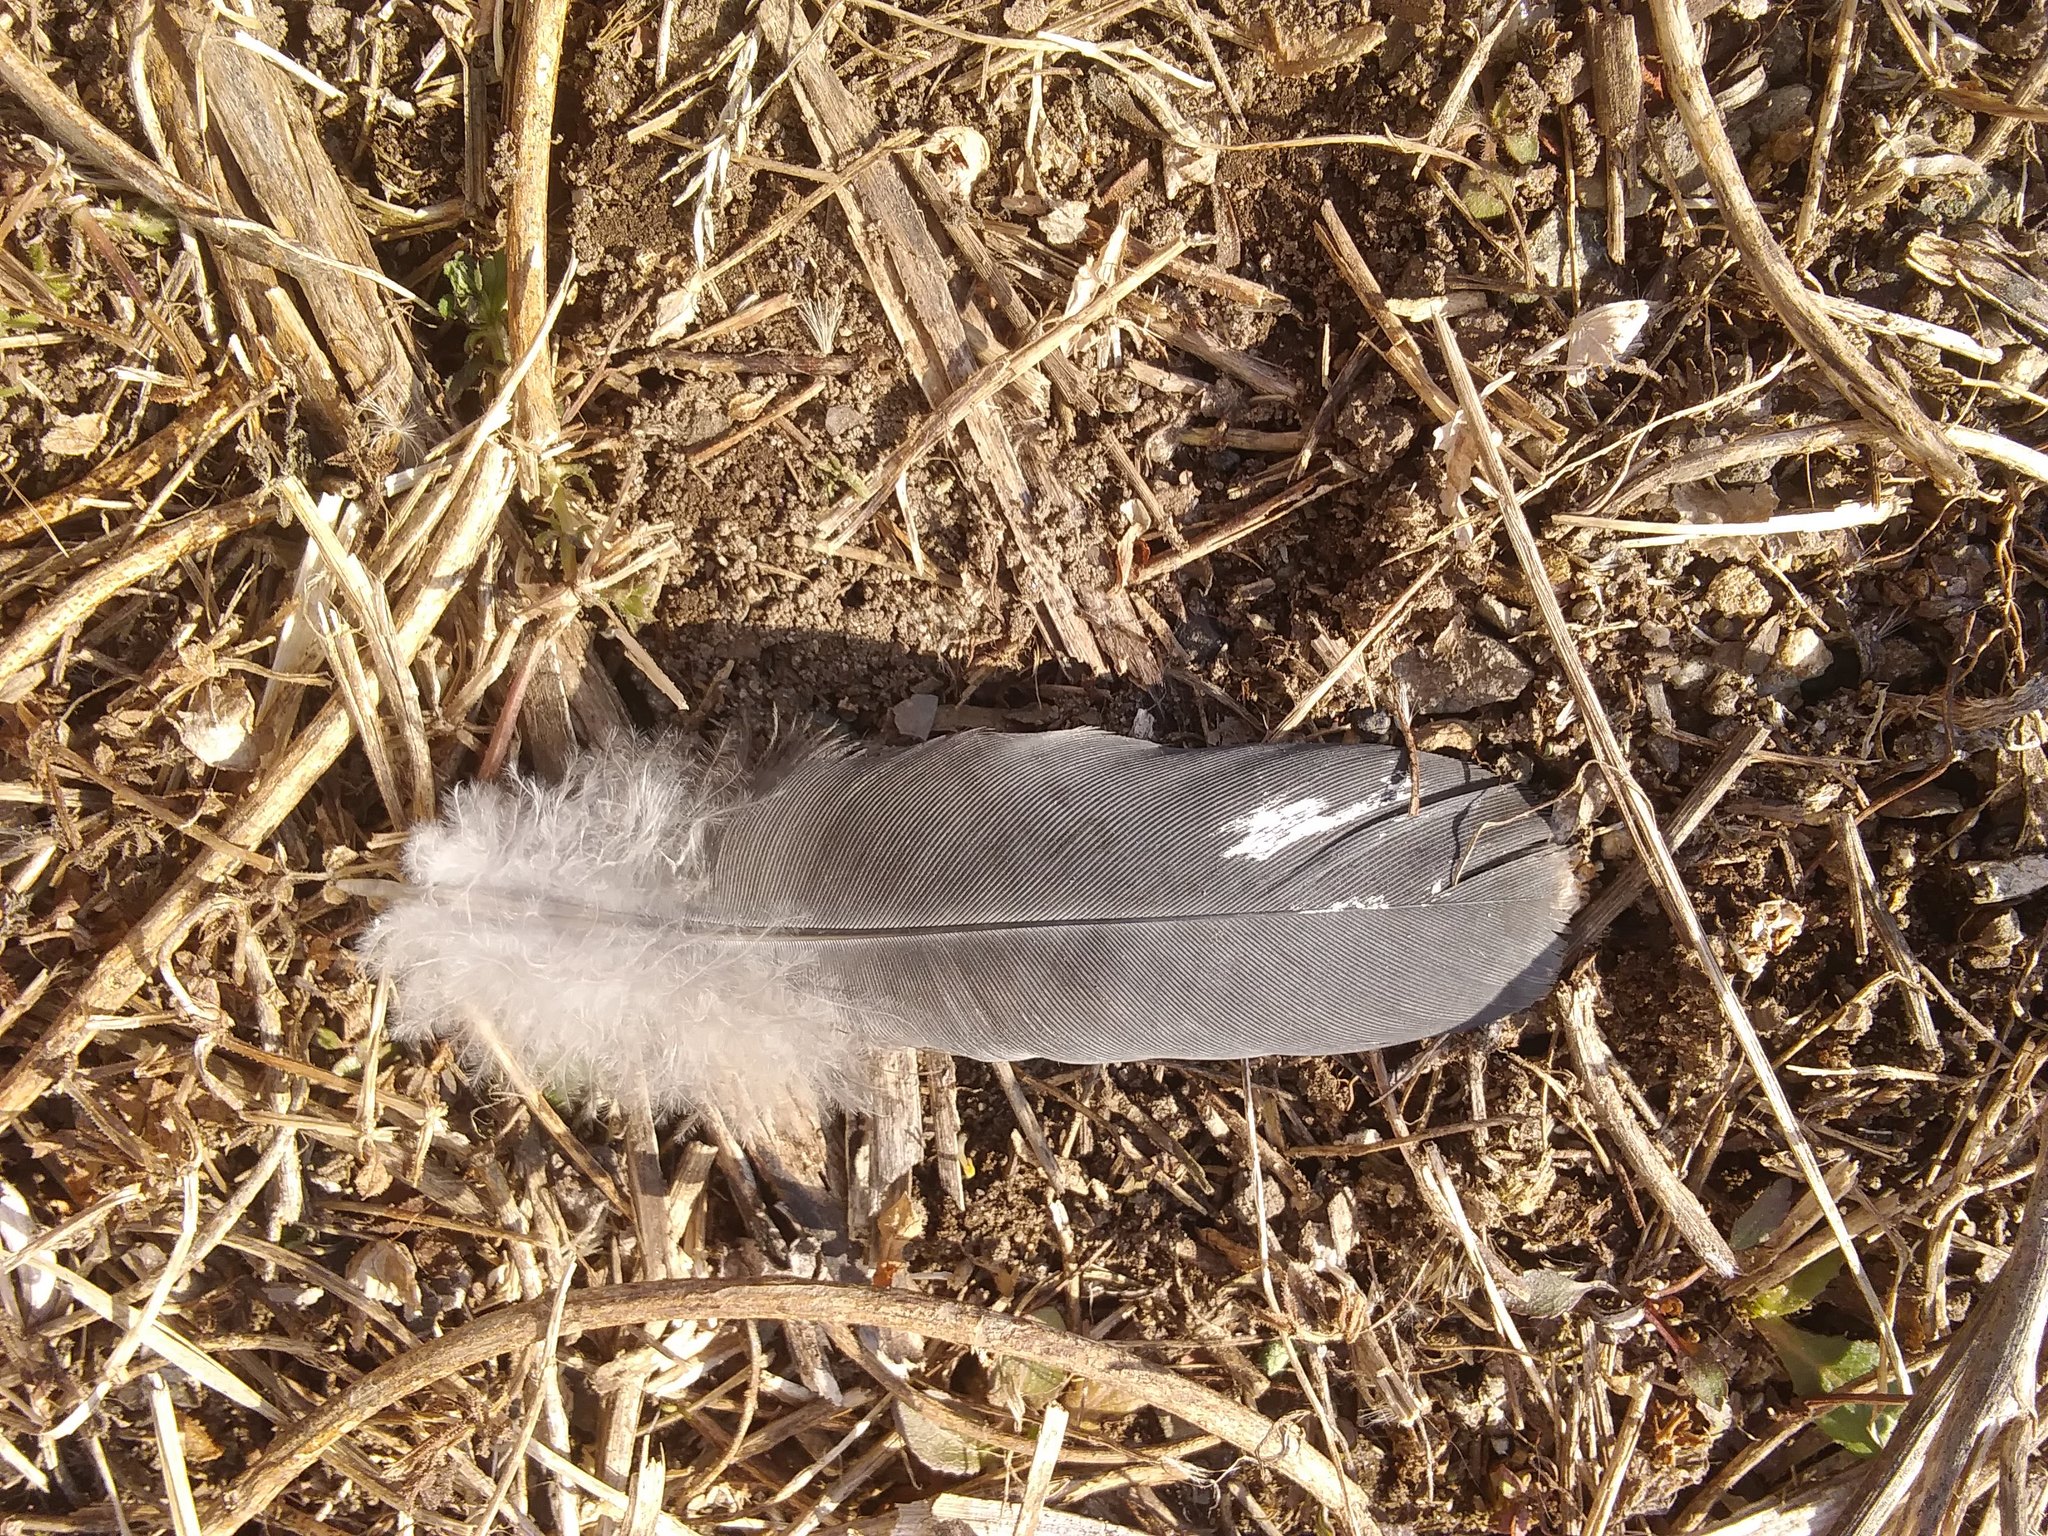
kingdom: Animalia
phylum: Chordata
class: Aves
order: Columbiformes
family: Columbidae
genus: Columba
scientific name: Columba livia
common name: Rock pigeon
